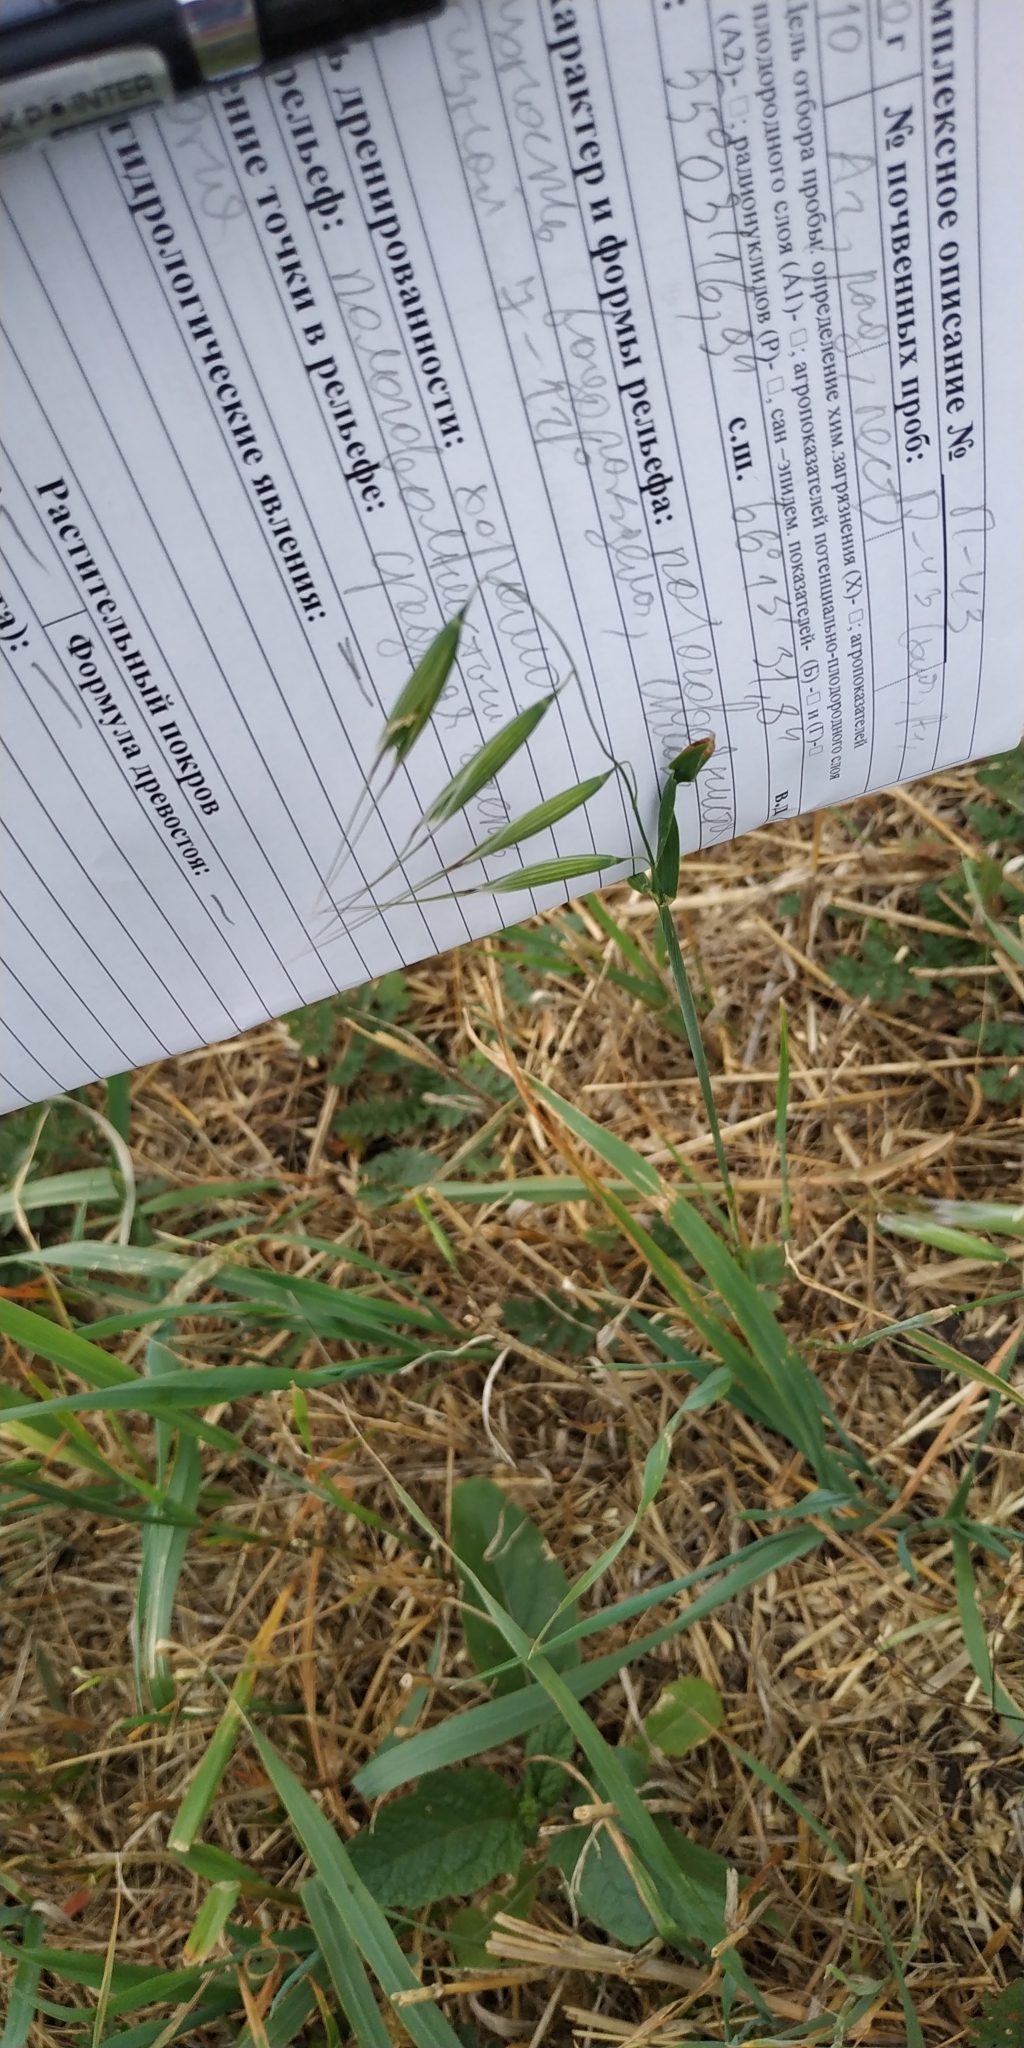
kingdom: Plantae
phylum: Tracheophyta
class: Liliopsida
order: Poales
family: Poaceae
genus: Avena
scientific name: Avena fatua
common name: Wild oat
